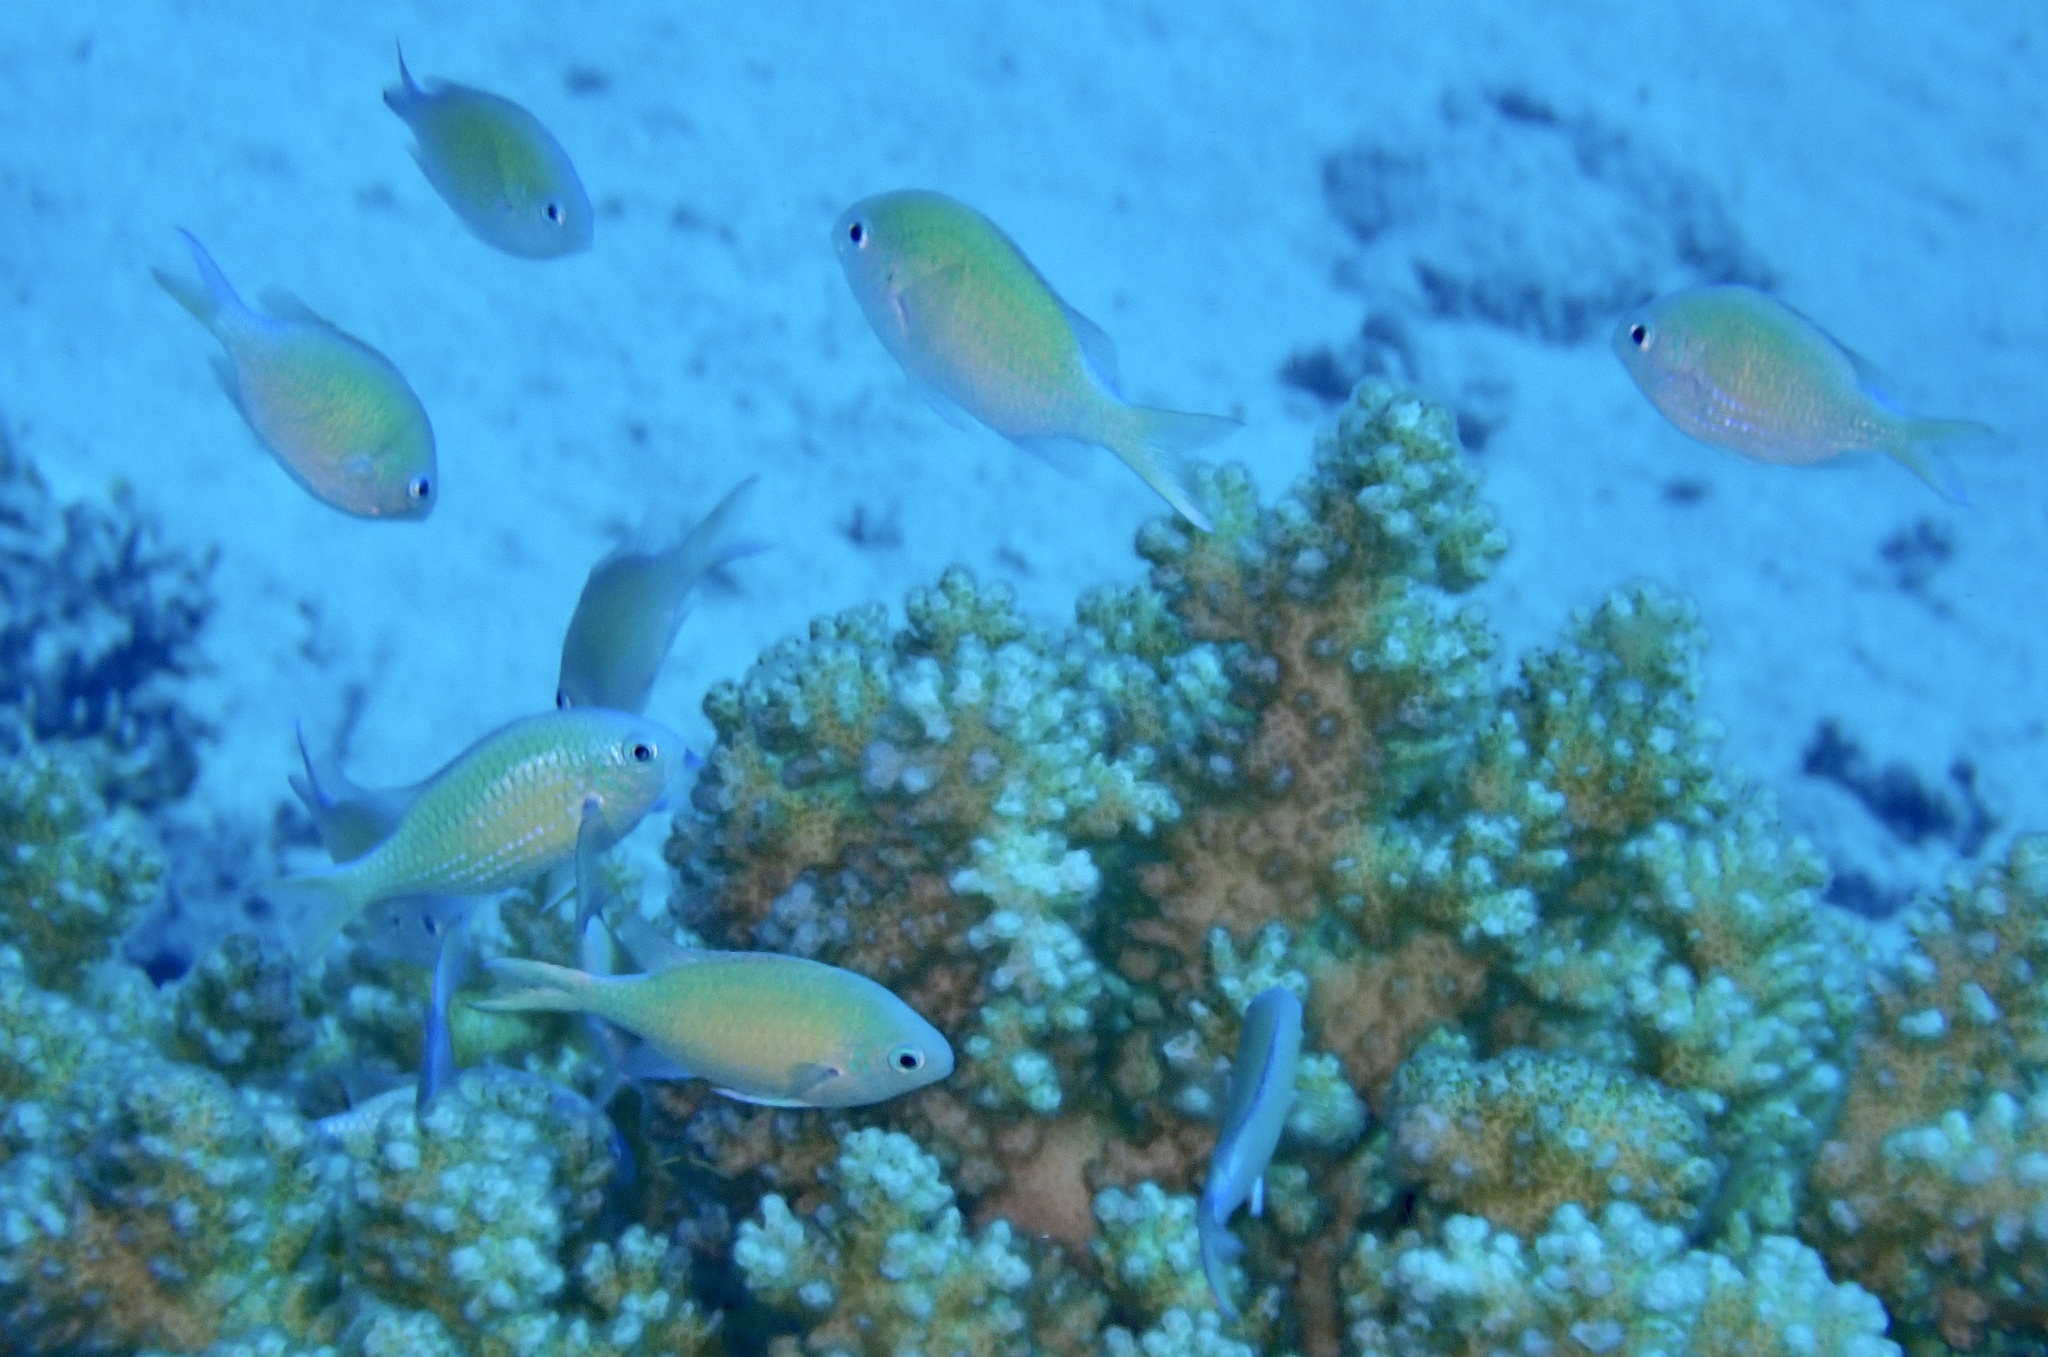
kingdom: Animalia
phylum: Chordata
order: Perciformes
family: Pomacentridae
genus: Chromis
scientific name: Chromis viridis
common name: Blue-green chromis
